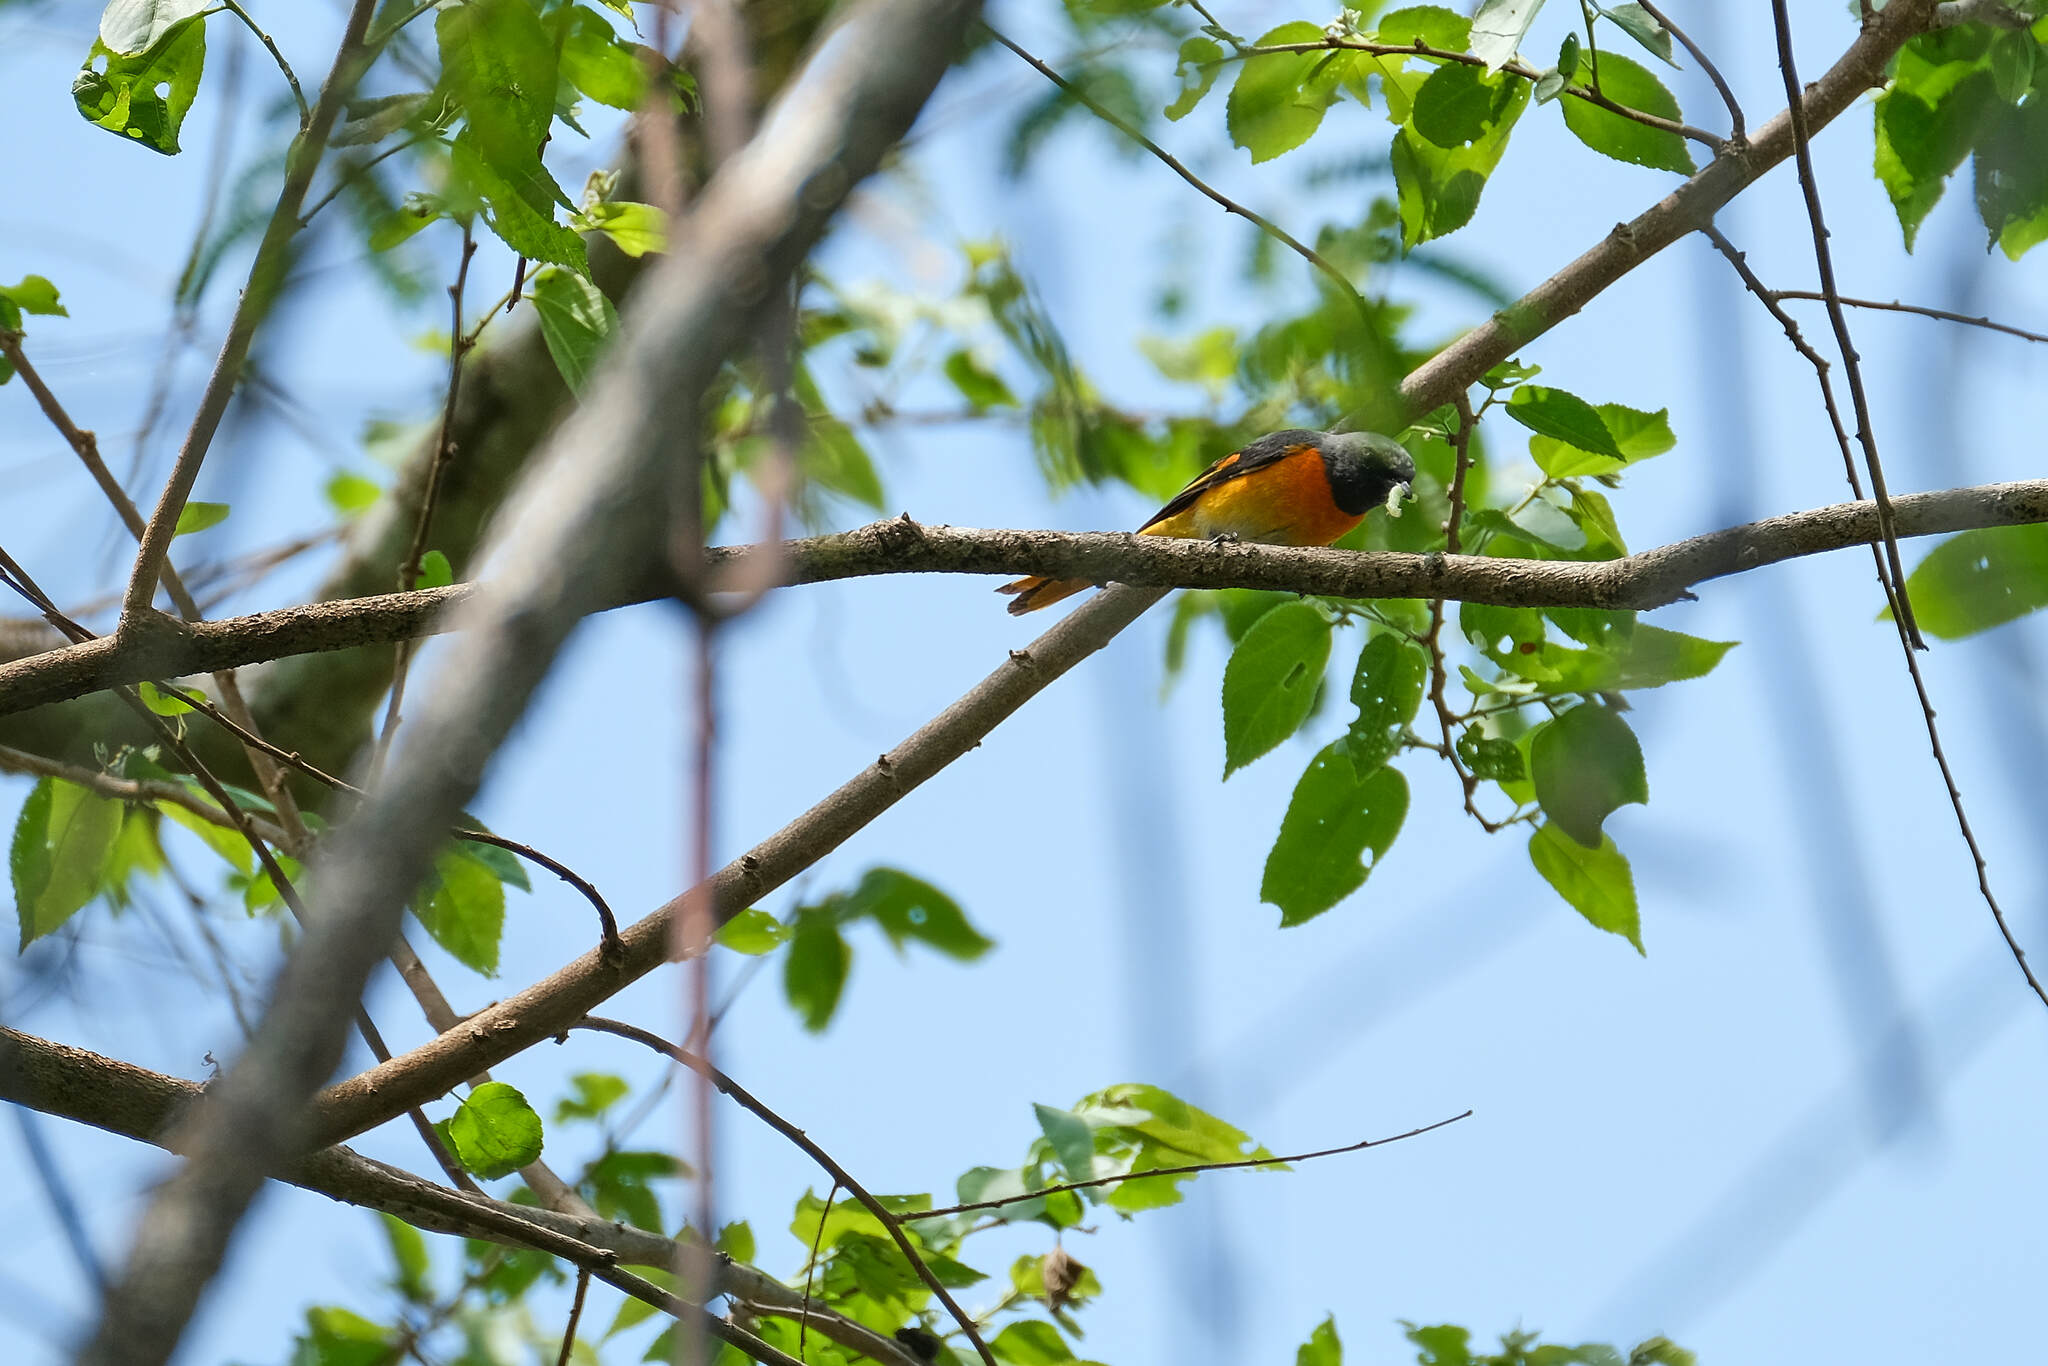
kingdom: Animalia
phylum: Chordata
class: Aves
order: Passeriformes
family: Campephagidae
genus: Pericrocotus
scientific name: Pericrocotus cinnamomeus
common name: Small minivet
